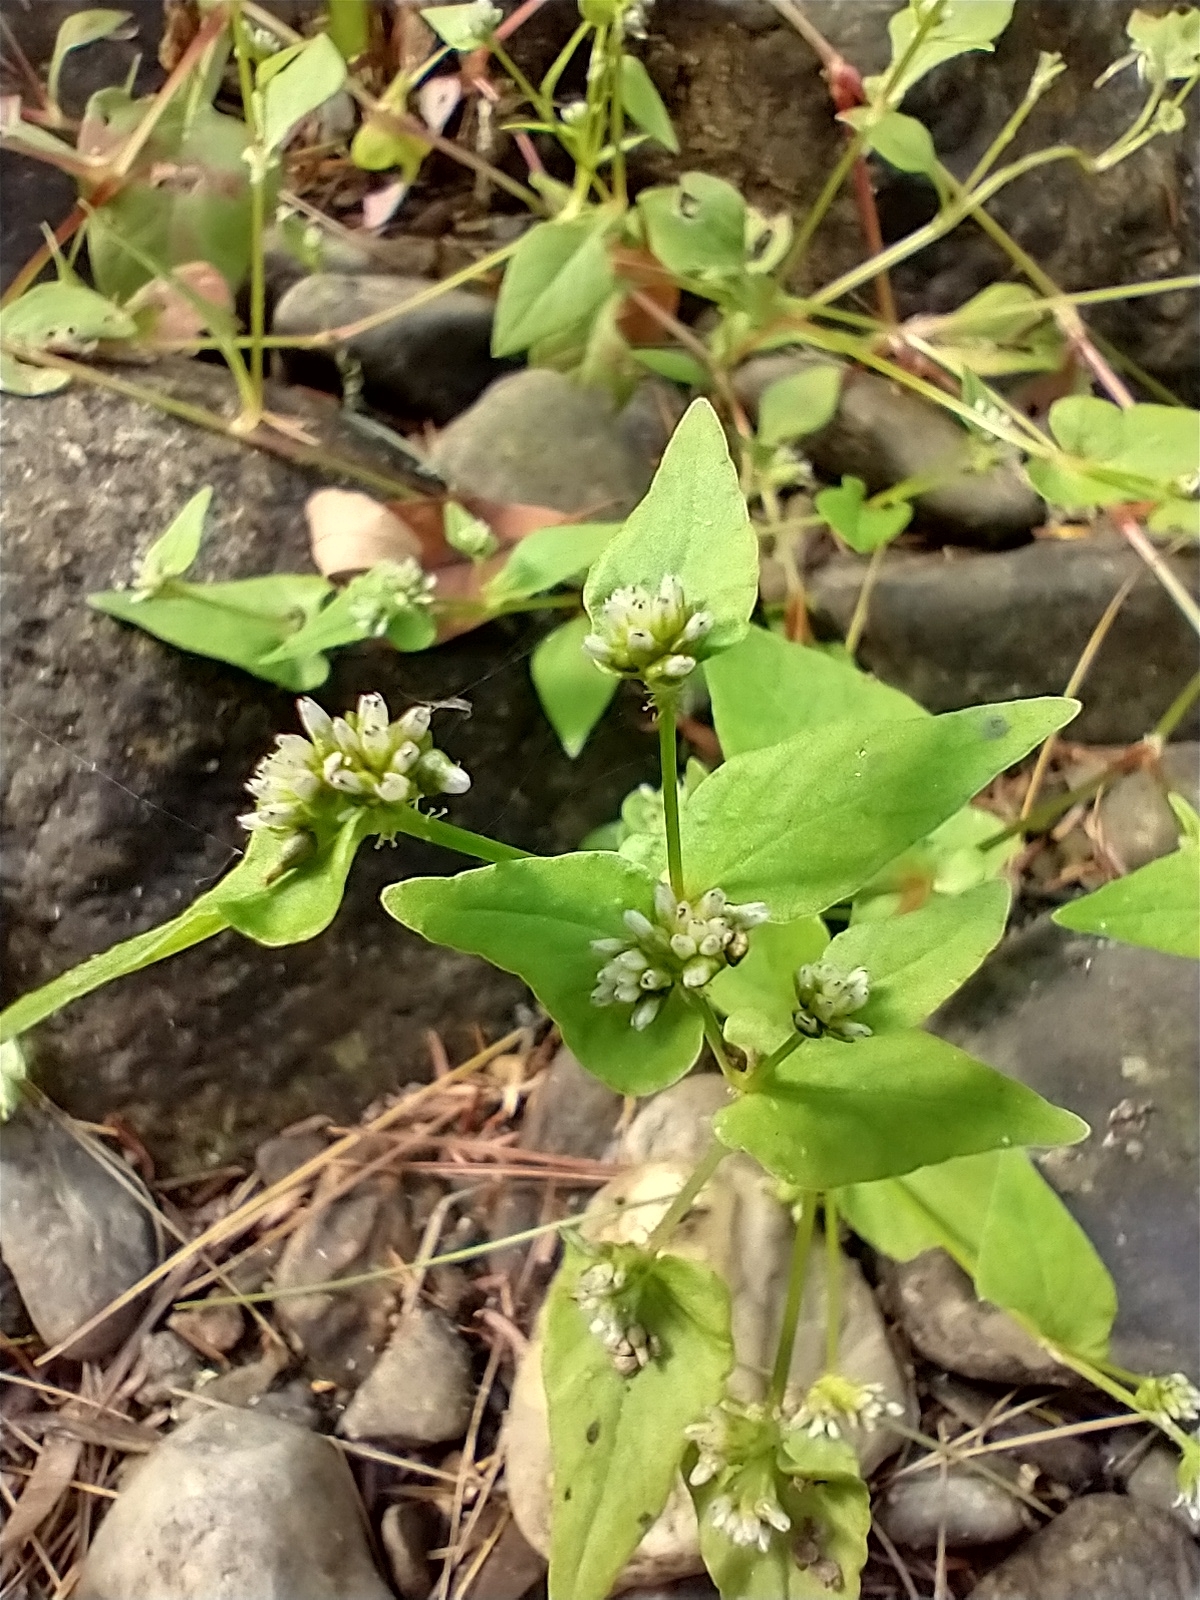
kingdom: Plantae
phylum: Tracheophyta
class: Magnoliopsida
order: Caryophyllales
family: Polygonaceae
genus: Persicaria
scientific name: Persicaria nepalensis
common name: Nepal persicaria
